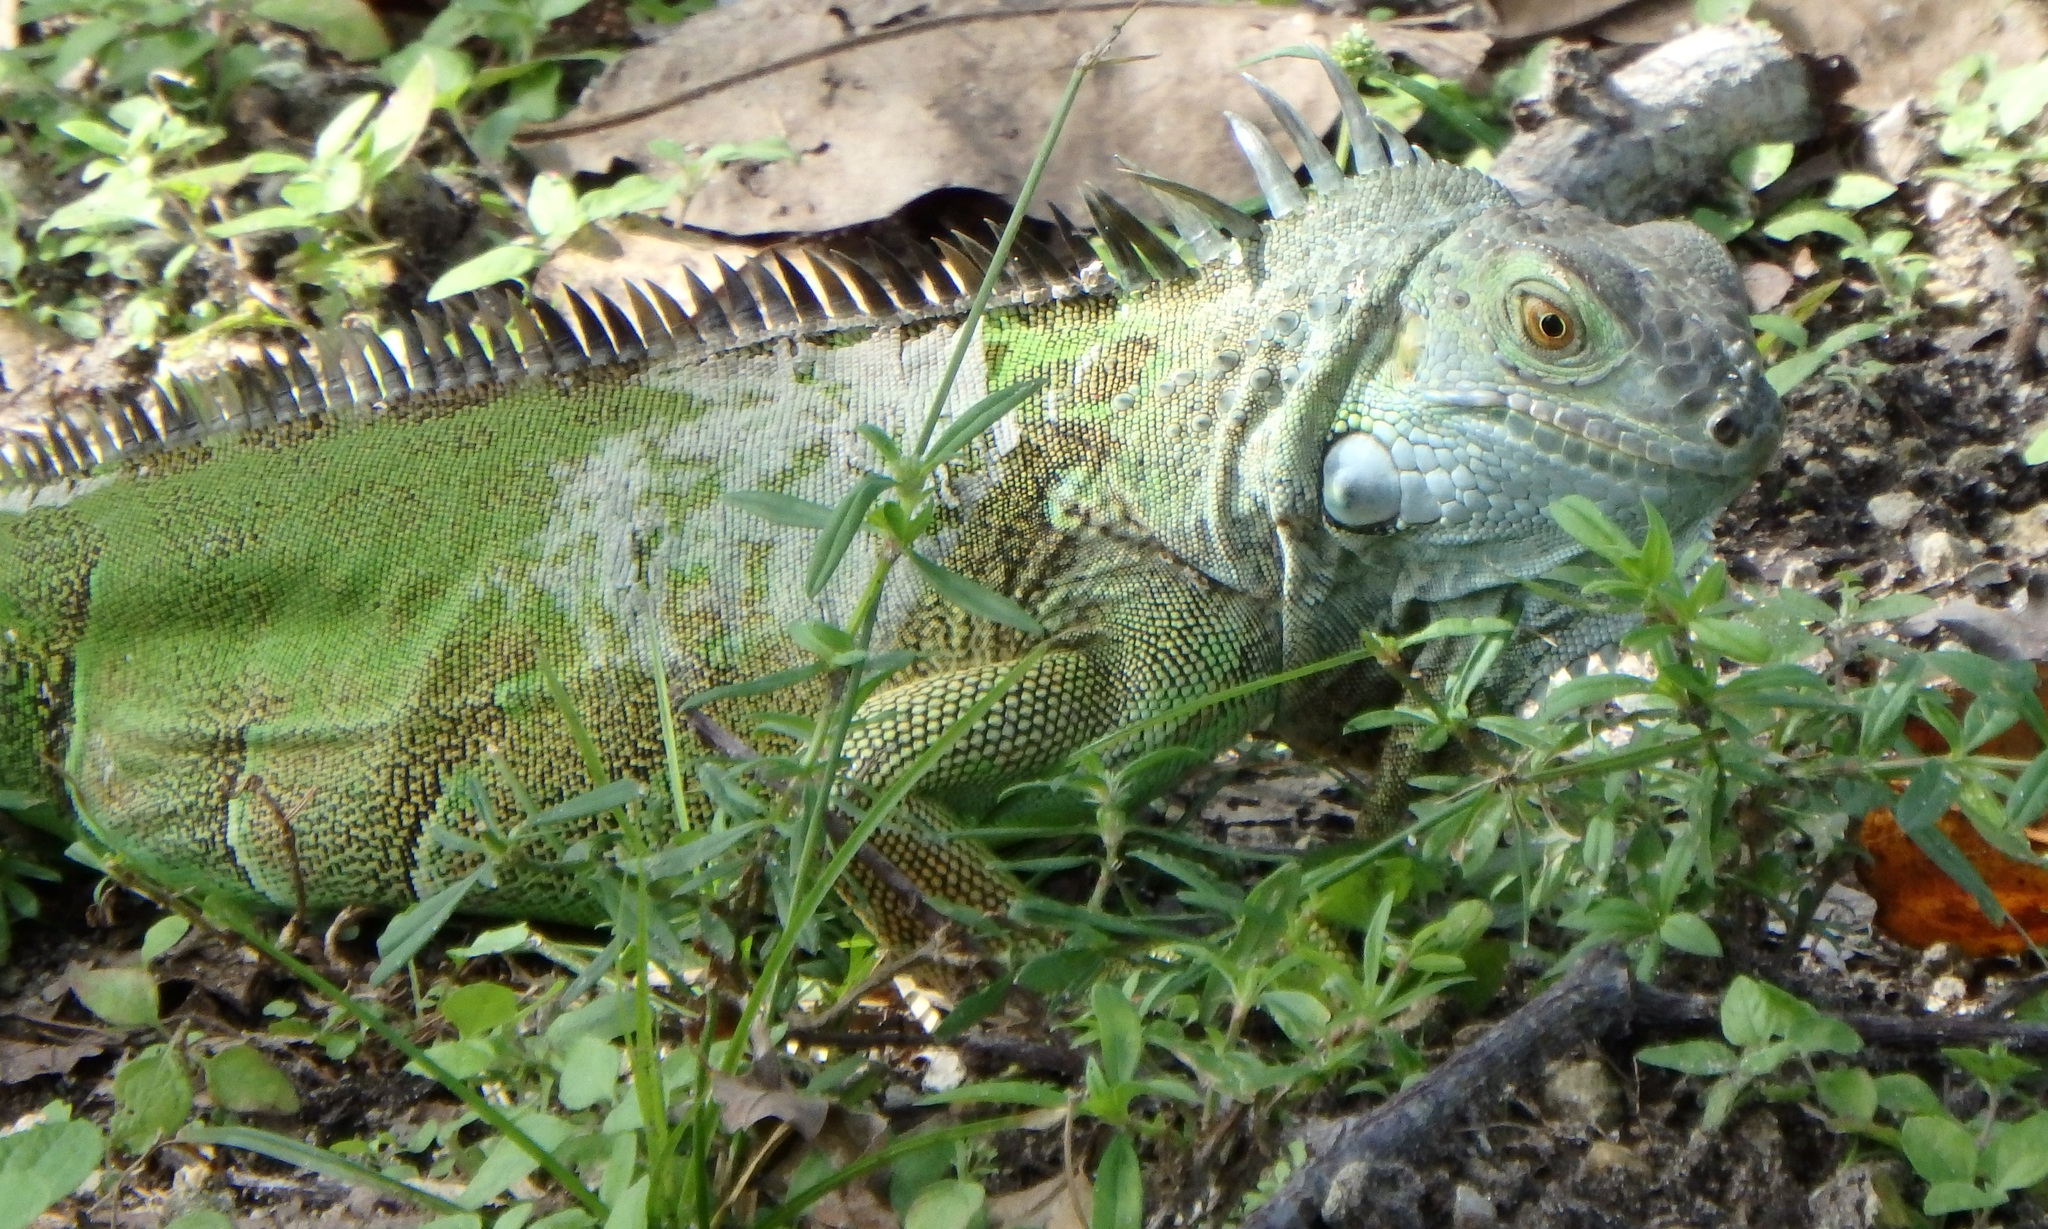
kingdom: Animalia
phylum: Chordata
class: Squamata
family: Iguanidae
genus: Iguana
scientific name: Iguana iguana
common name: Green iguana
